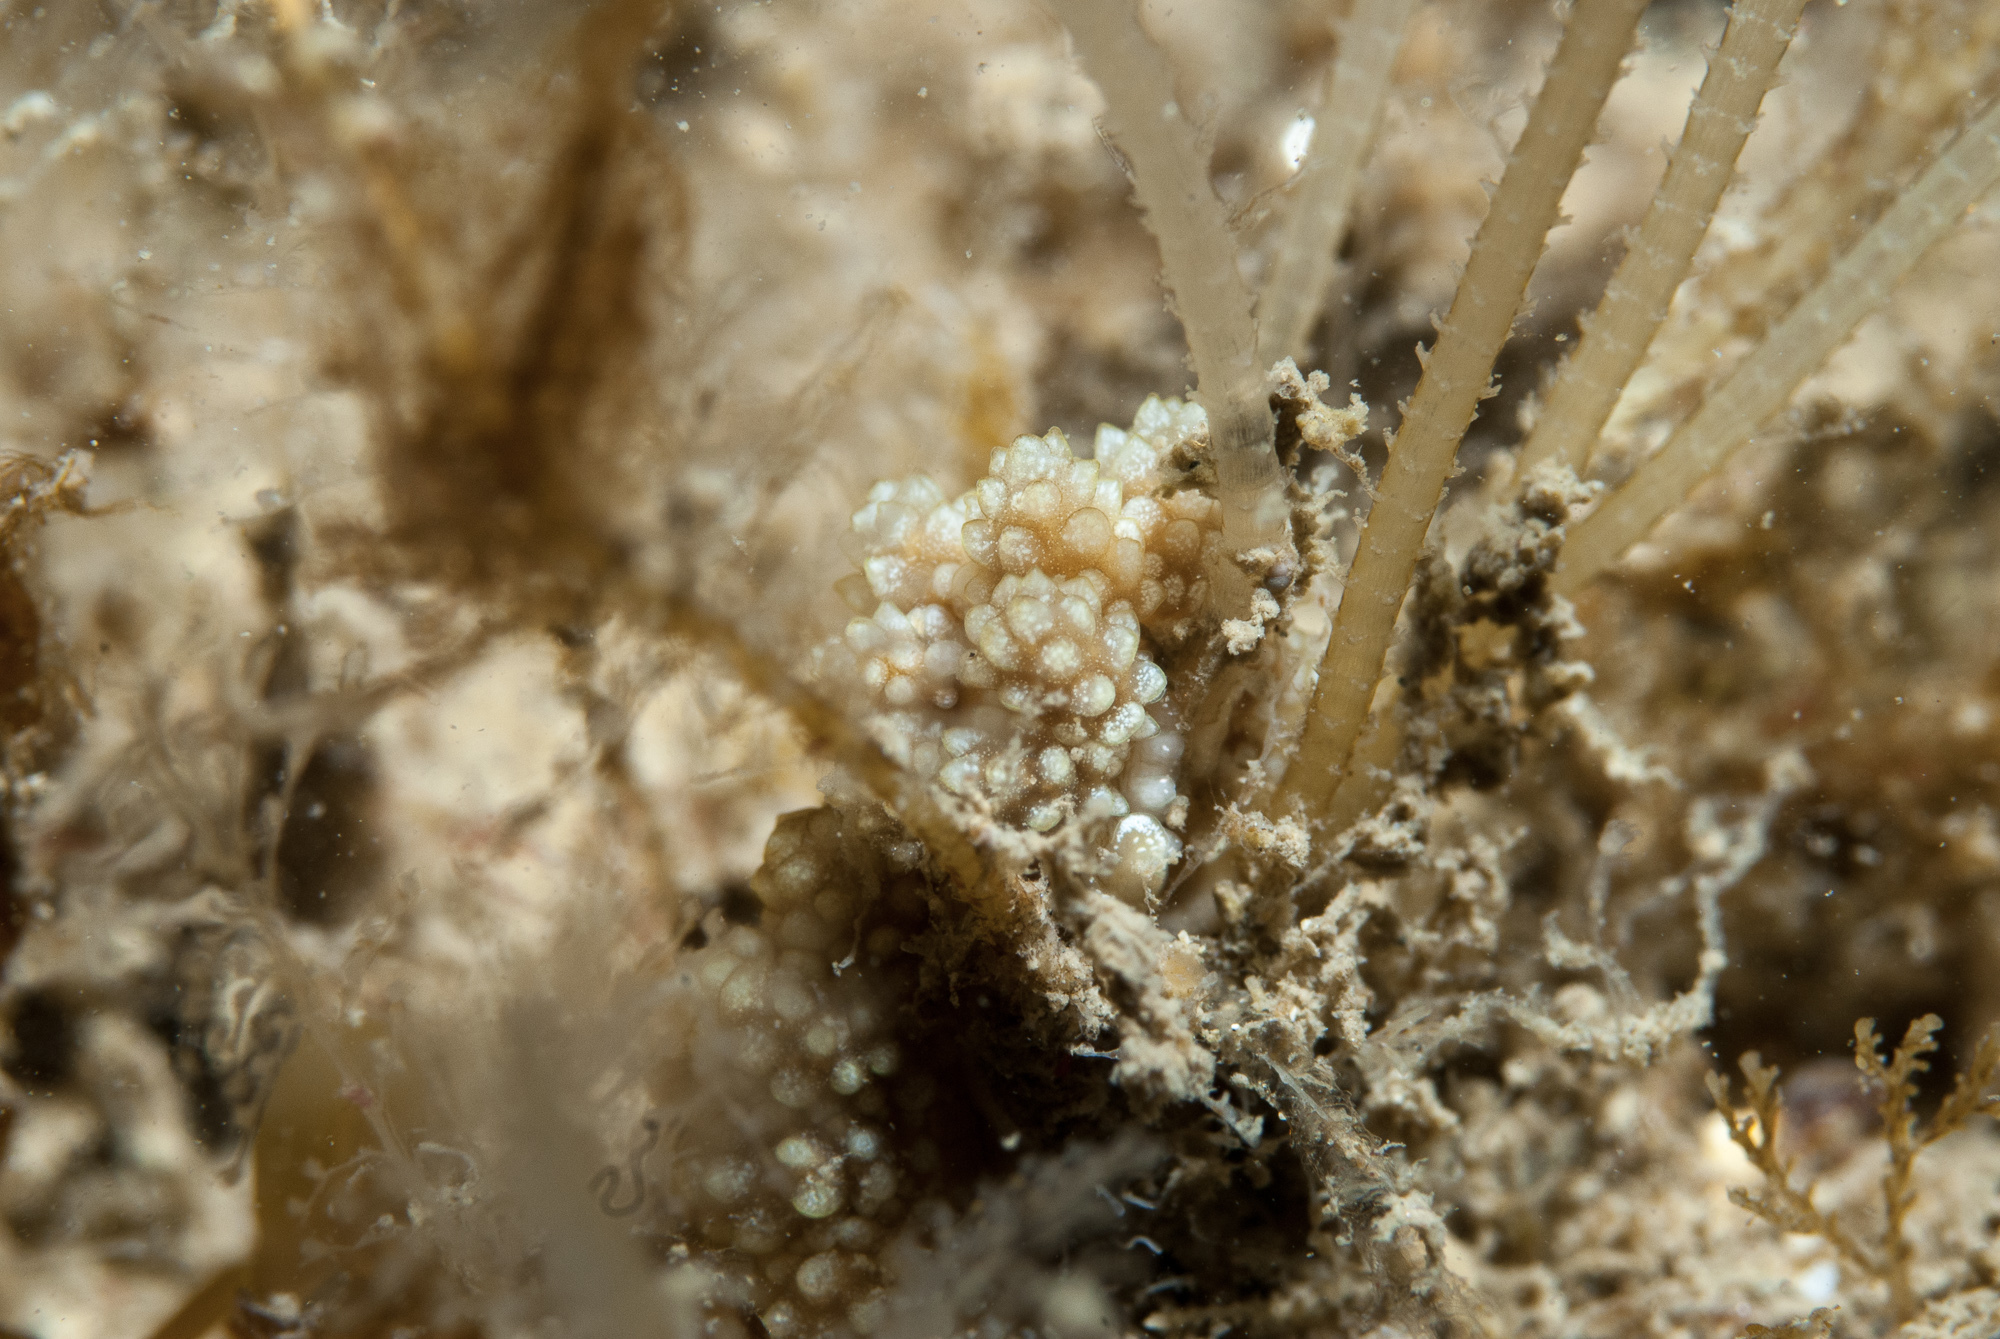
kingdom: Animalia
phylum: Mollusca
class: Gastropoda
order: Nudibranchia
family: Dotidae
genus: Doto
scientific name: Doto fragilis
